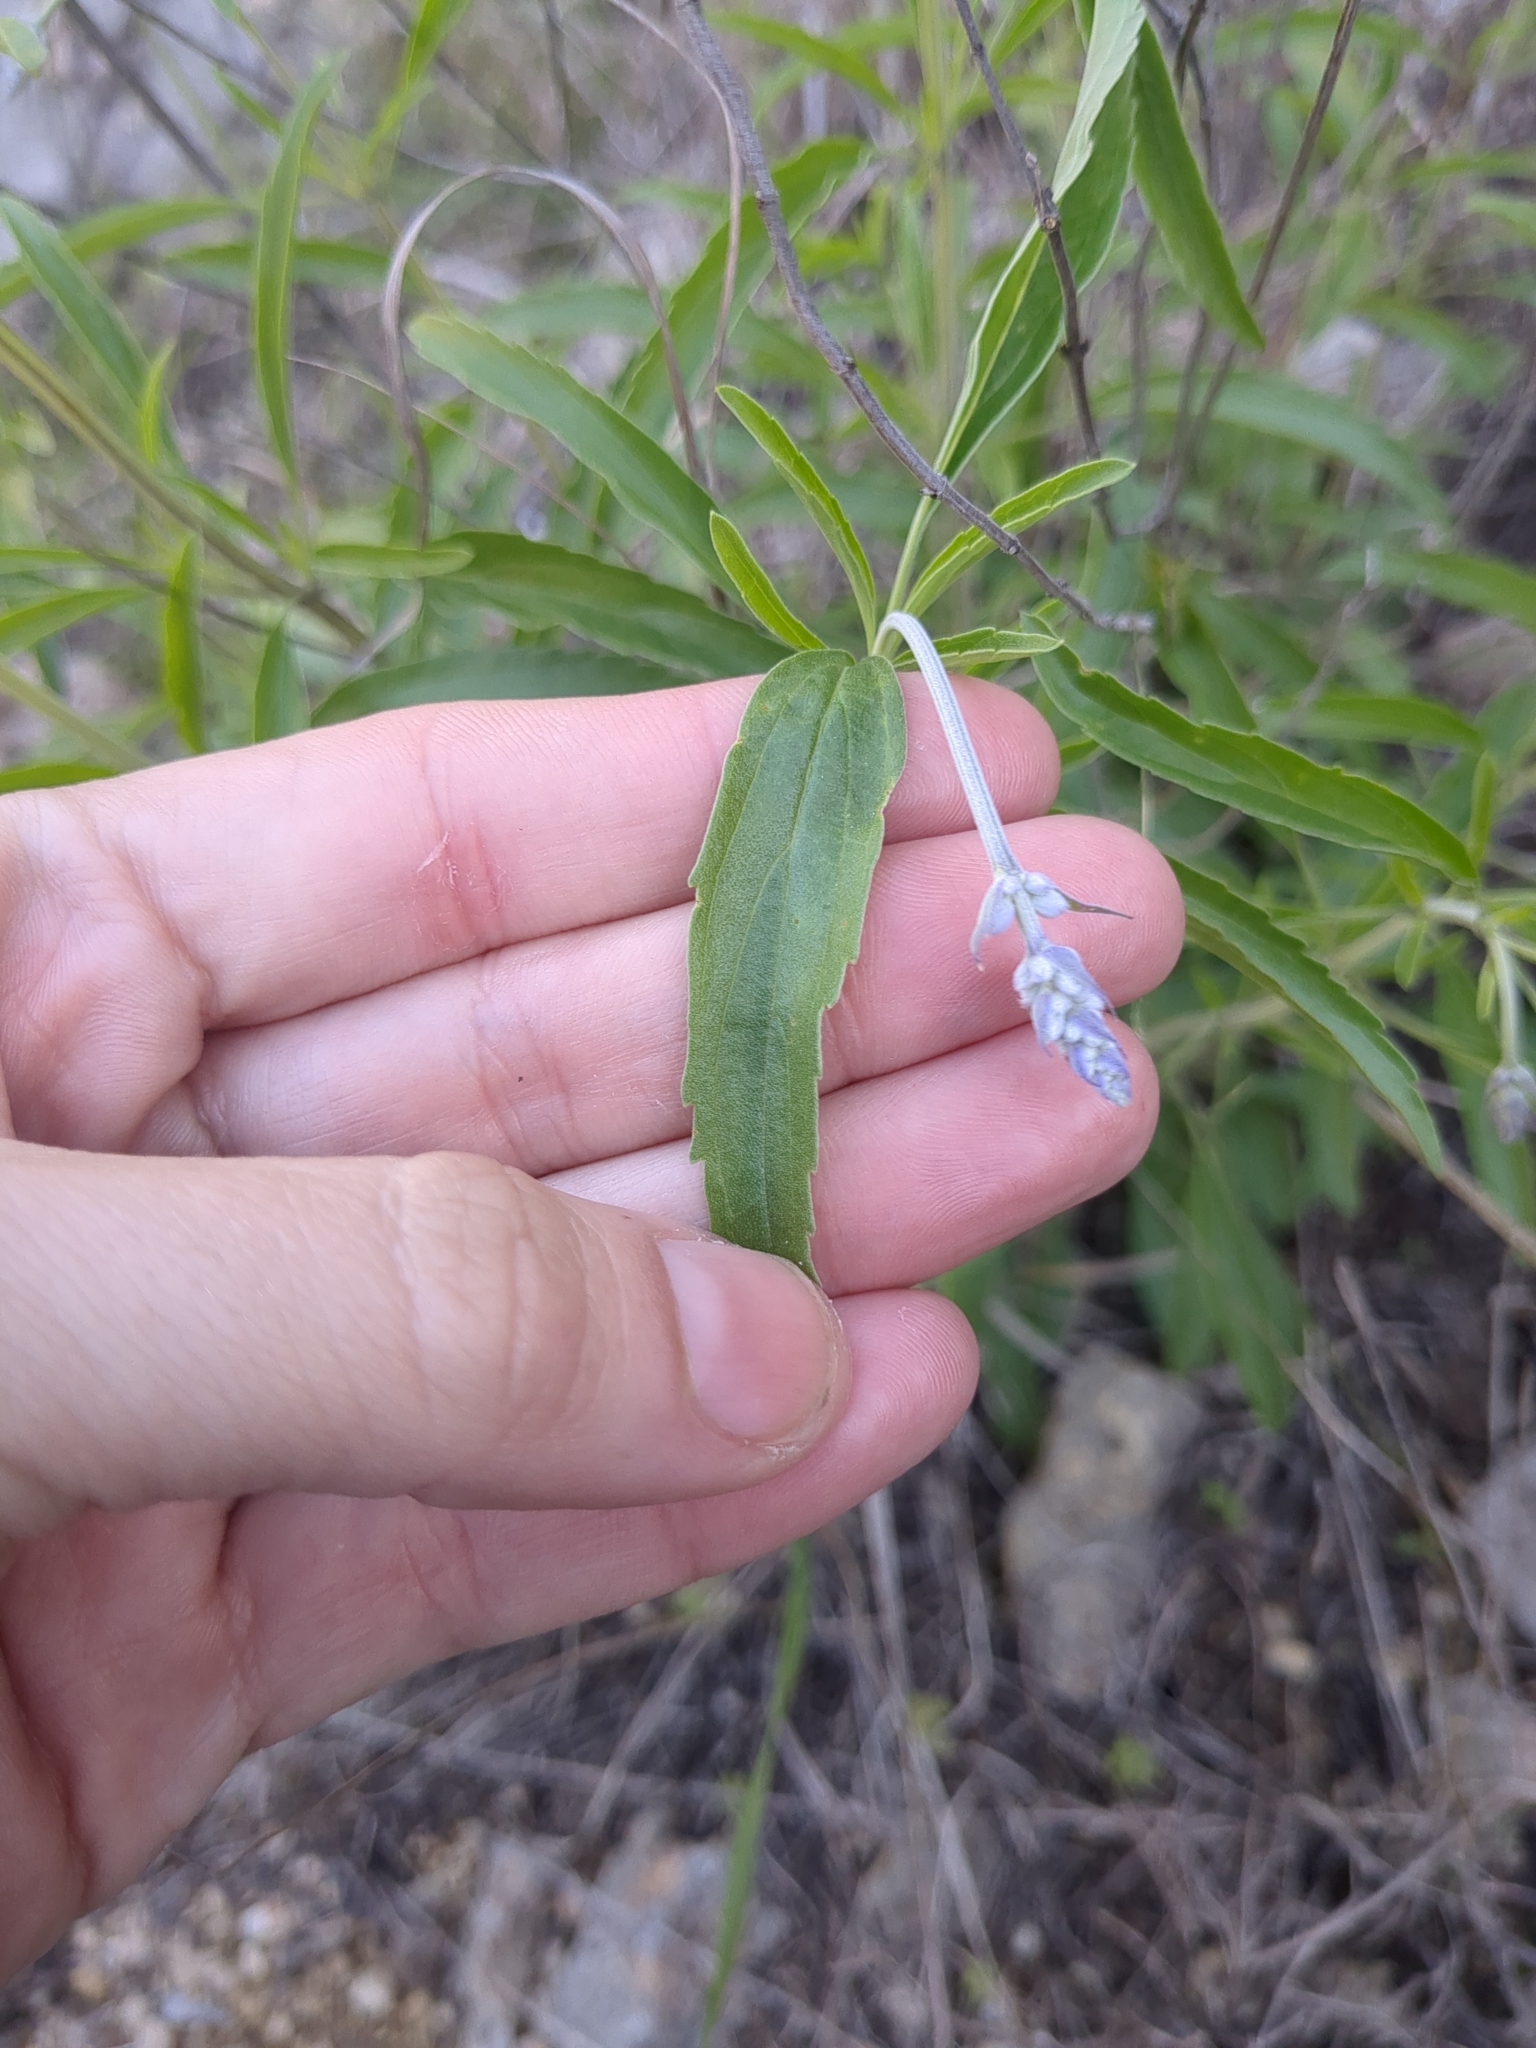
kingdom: Plantae
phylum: Tracheophyta
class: Magnoliopsida
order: Lamiales
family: Lamiaceae
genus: Salvia
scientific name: Salvia farinacea
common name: Mealy sage
